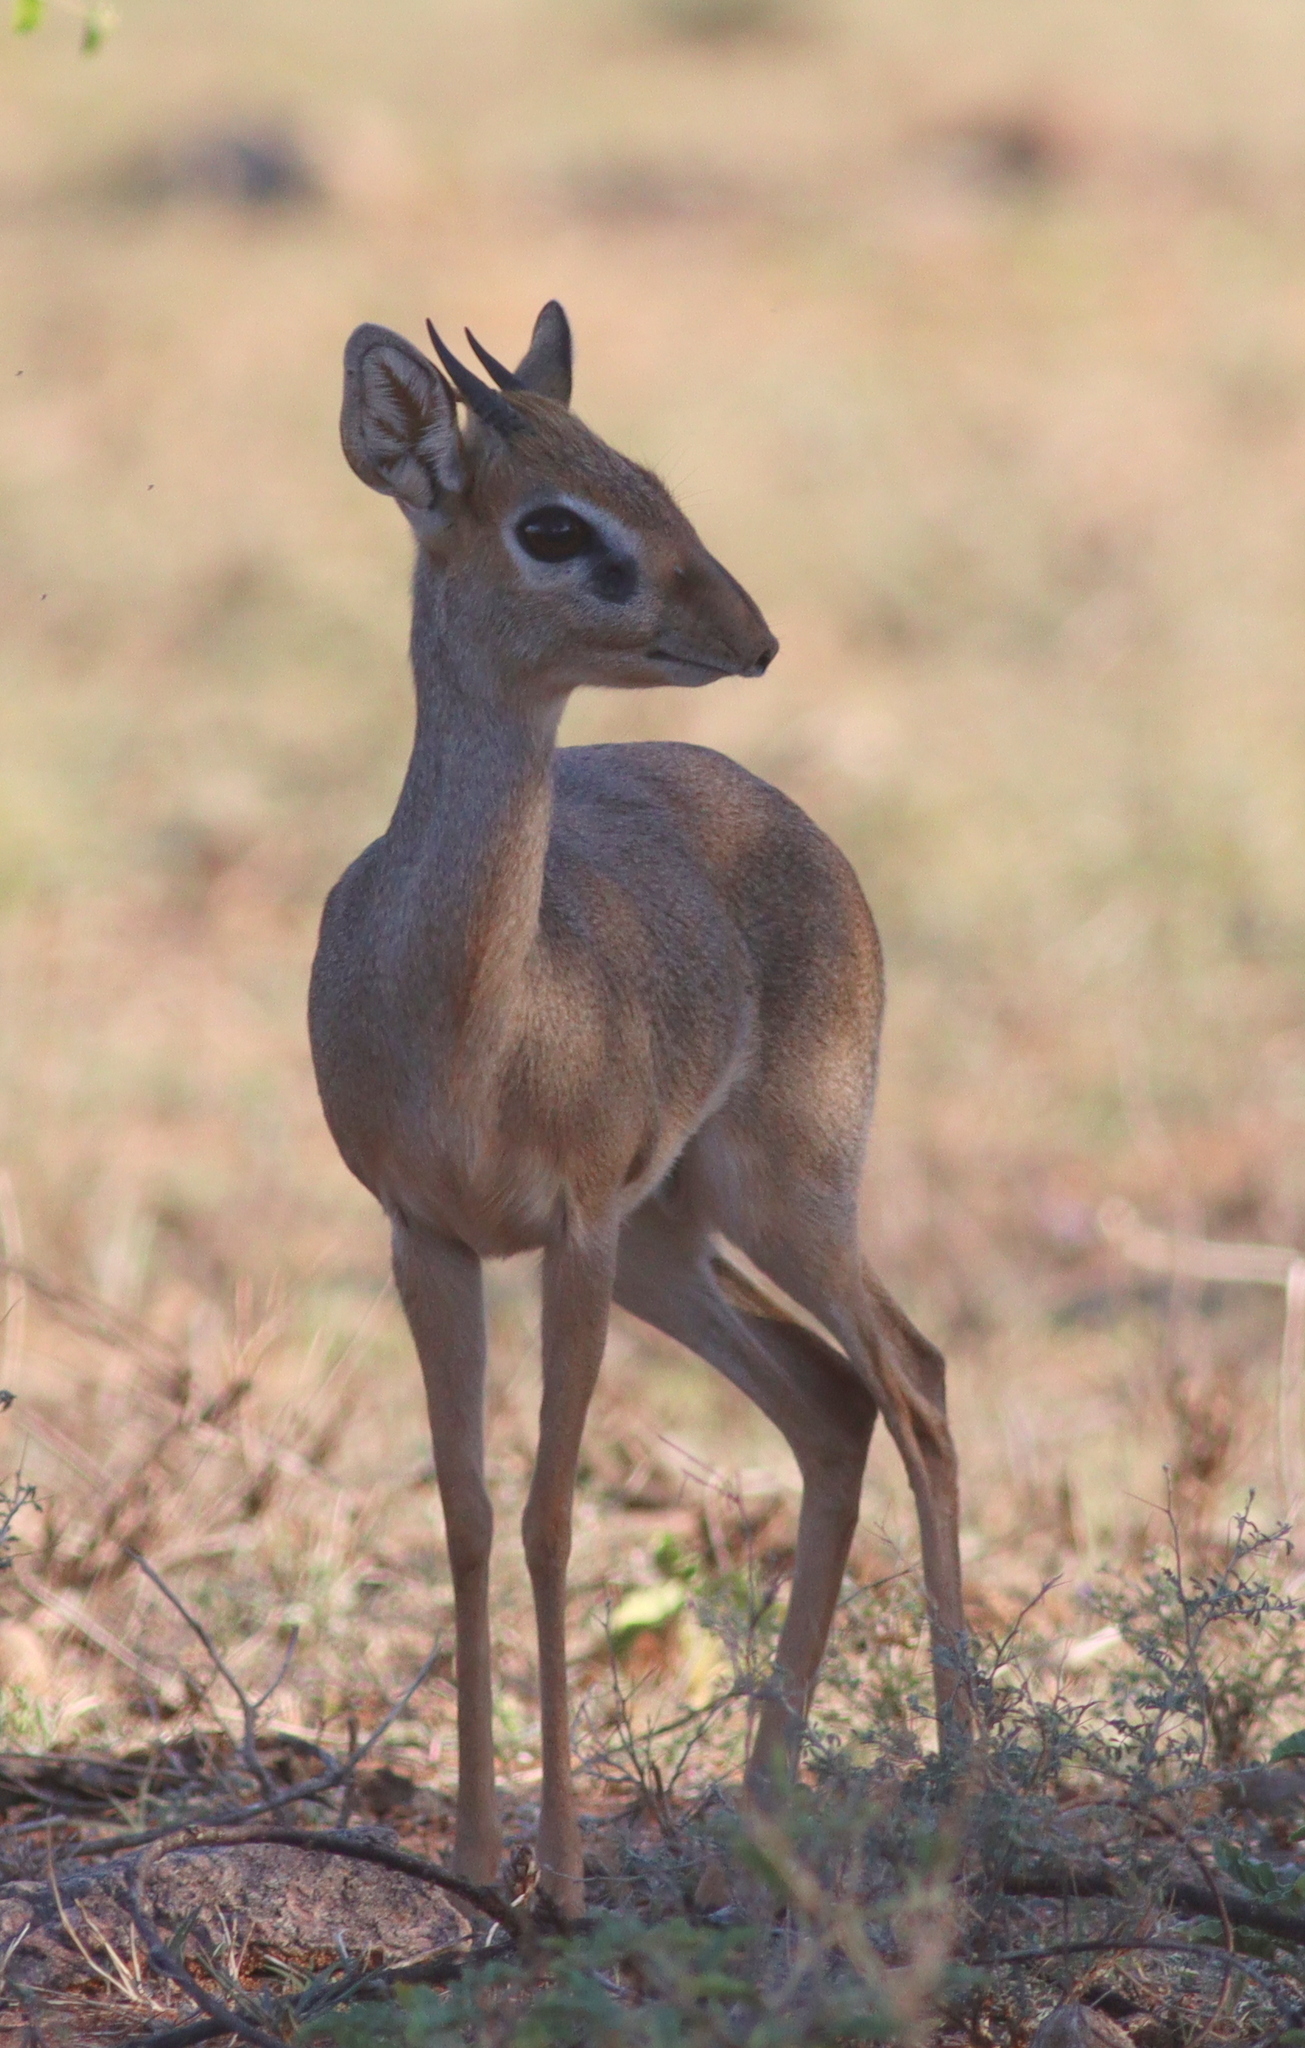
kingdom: Animalia
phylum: Chordata
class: Mammalia
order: Artiodactyla
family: Bovidae
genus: Madoqua
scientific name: Madoqua kirkii
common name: Kirk's dik-dik
